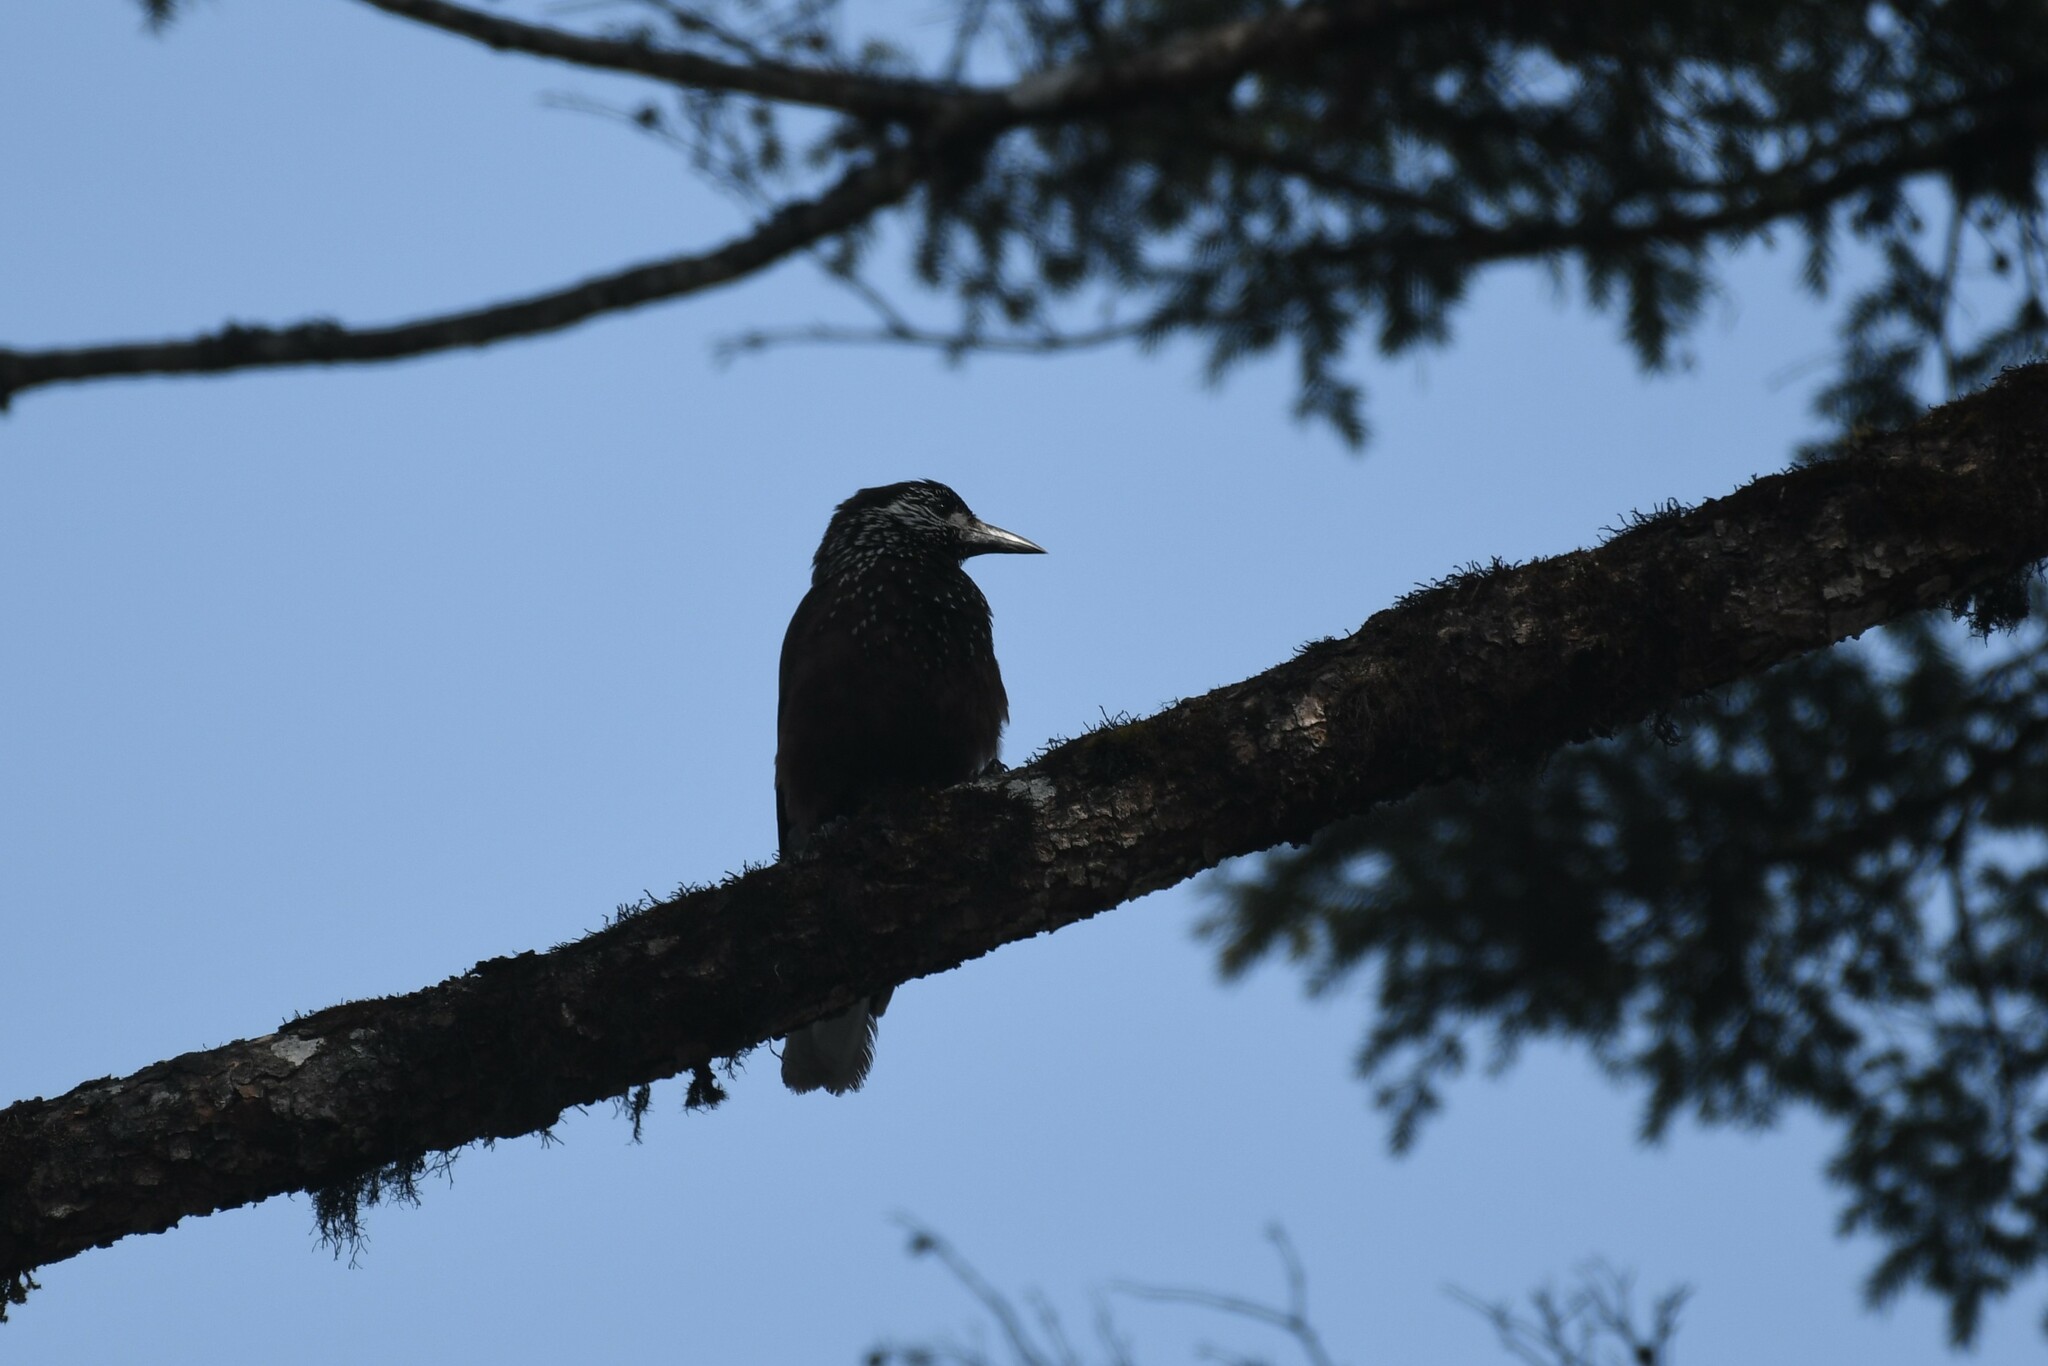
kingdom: Animalia
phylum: Chordata
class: Aves
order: Passeriformes
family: Corvidae
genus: Nucifraga
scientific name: Nucifraga caryocatactes
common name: Spotted nutcracker
